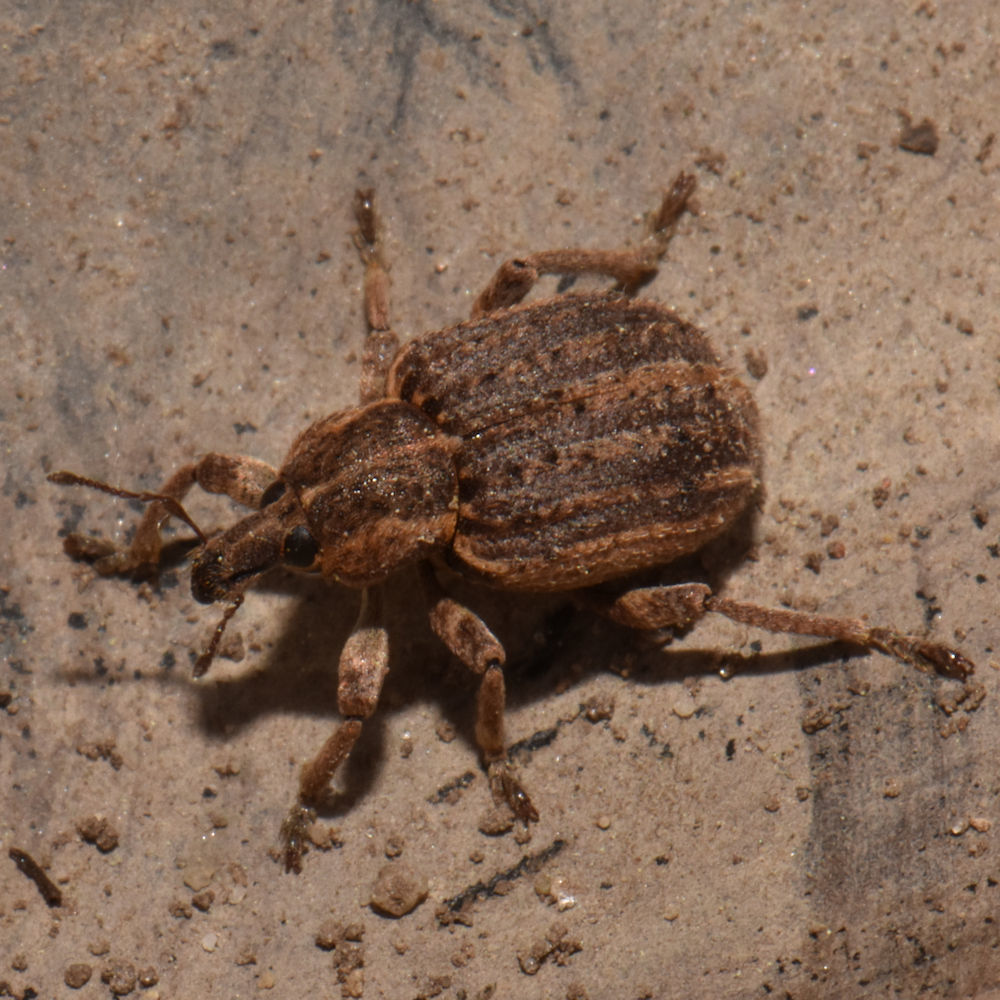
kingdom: Animalia
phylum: Arthropoda
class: Insecta
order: Coleoptera
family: Curculionidae
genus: Brachypera
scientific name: Brachypera zoilus
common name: Clover leaf weevil
